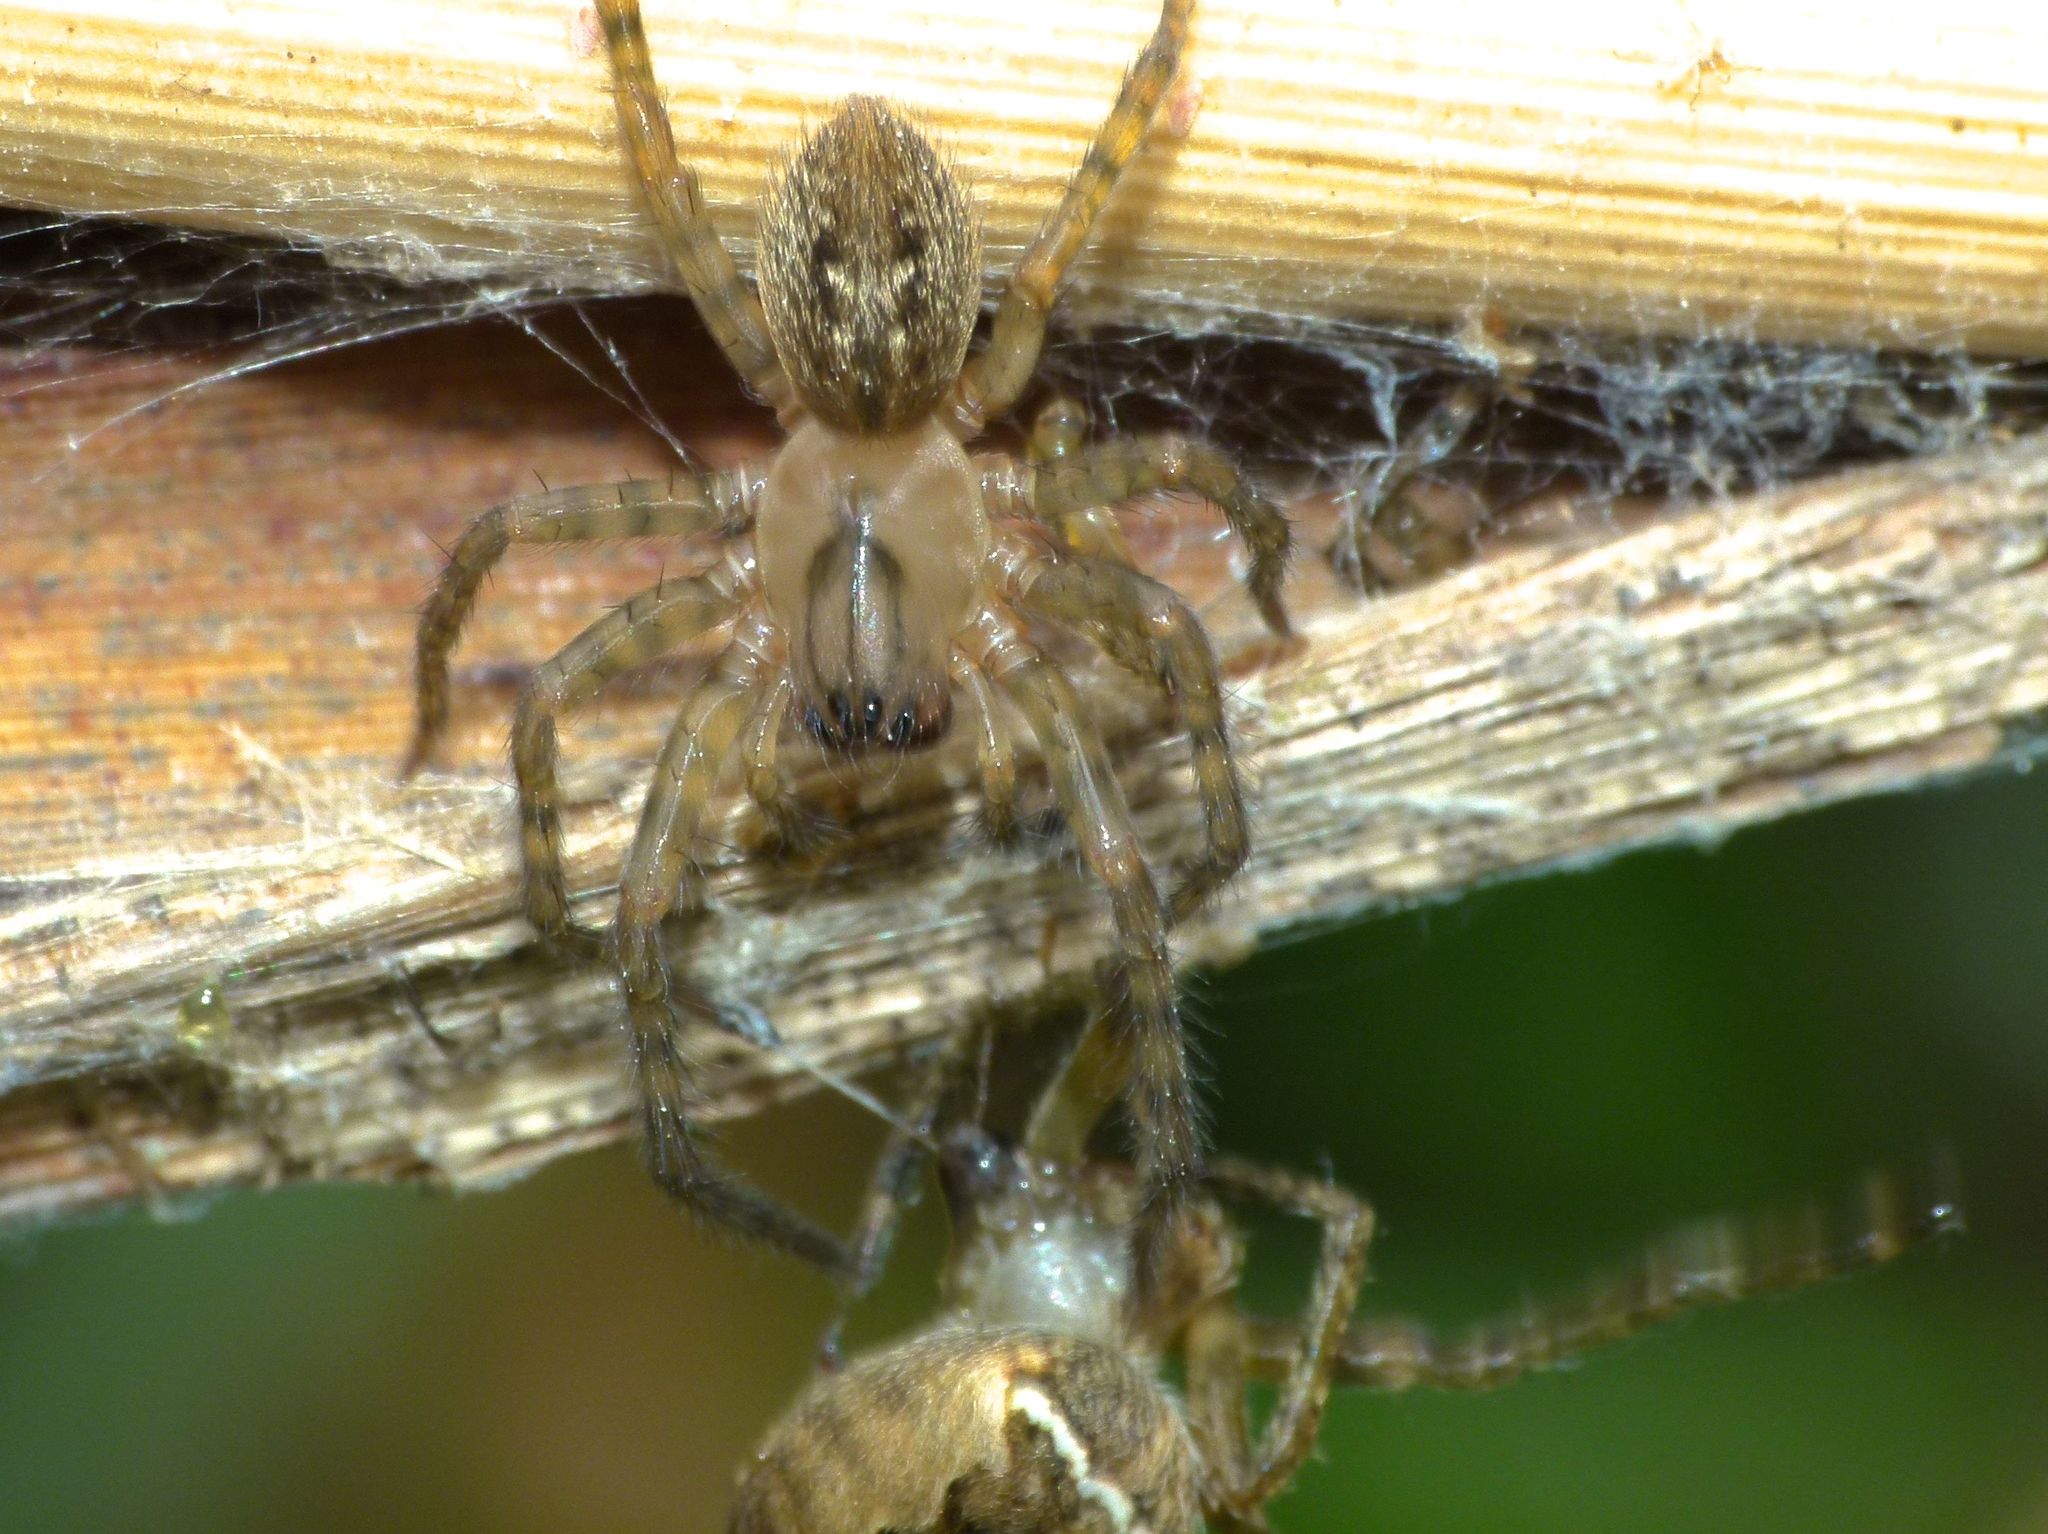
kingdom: Animalia
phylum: Arthropoda
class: Arachnida
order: Araneae
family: Araneidae
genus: Zealaranea
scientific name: Zealaranea crassa
